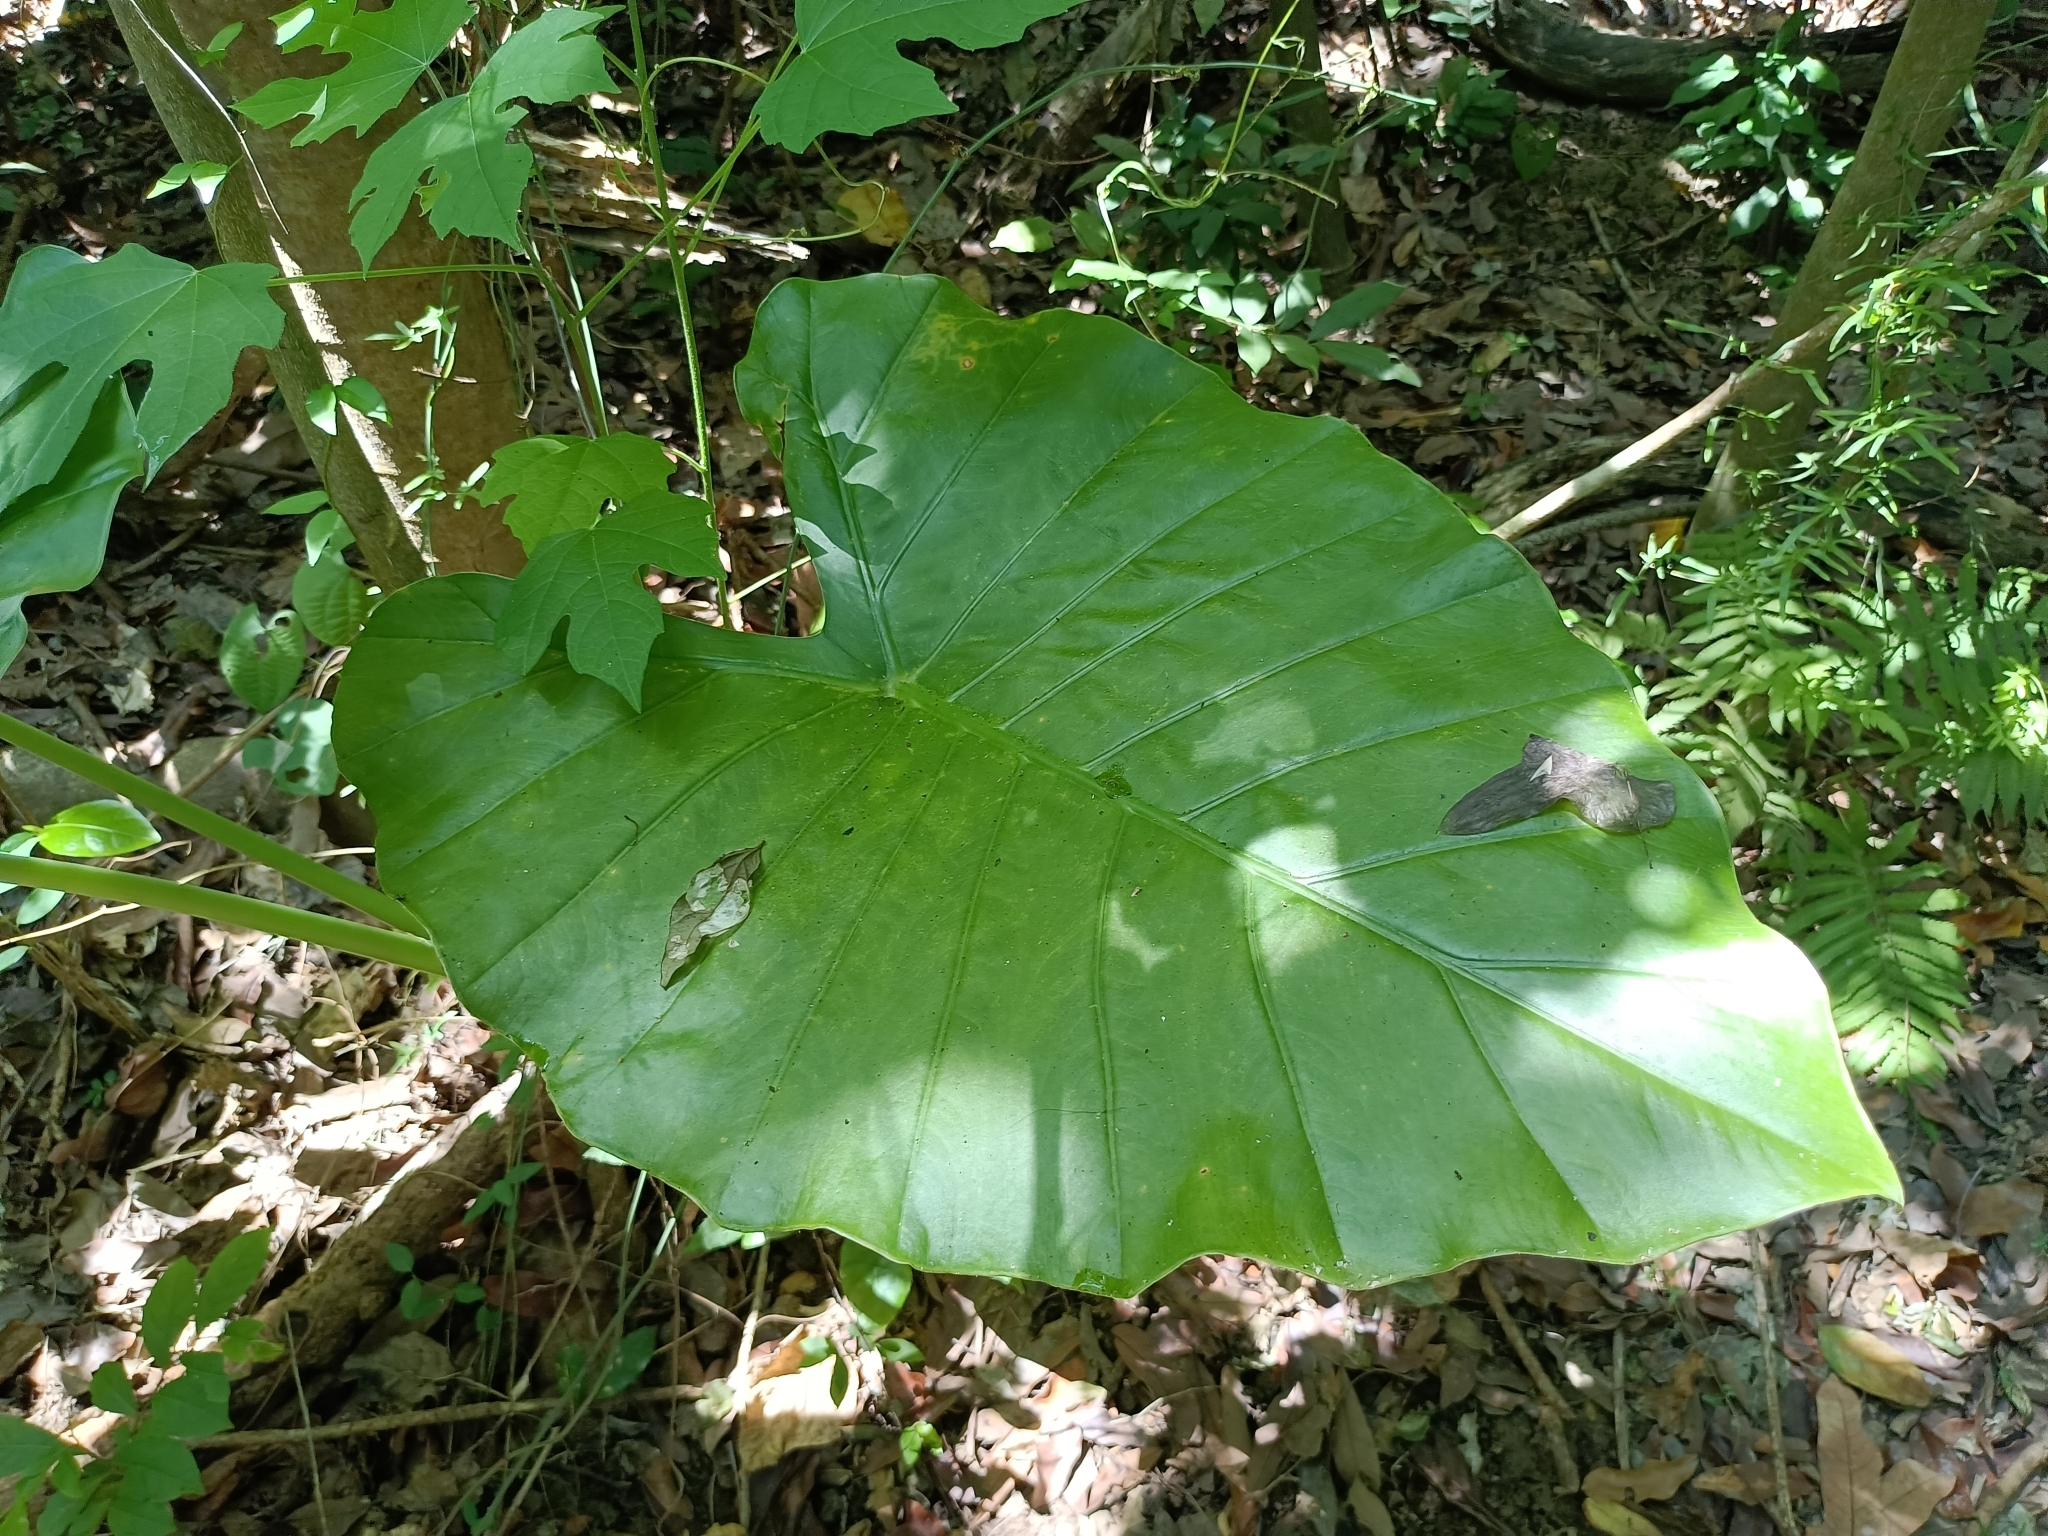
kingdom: Plantae
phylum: Tracheophyta
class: Liliopsida
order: Alismatales
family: Araceae
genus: Alocasia
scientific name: Alocasia odora
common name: Asian taro
